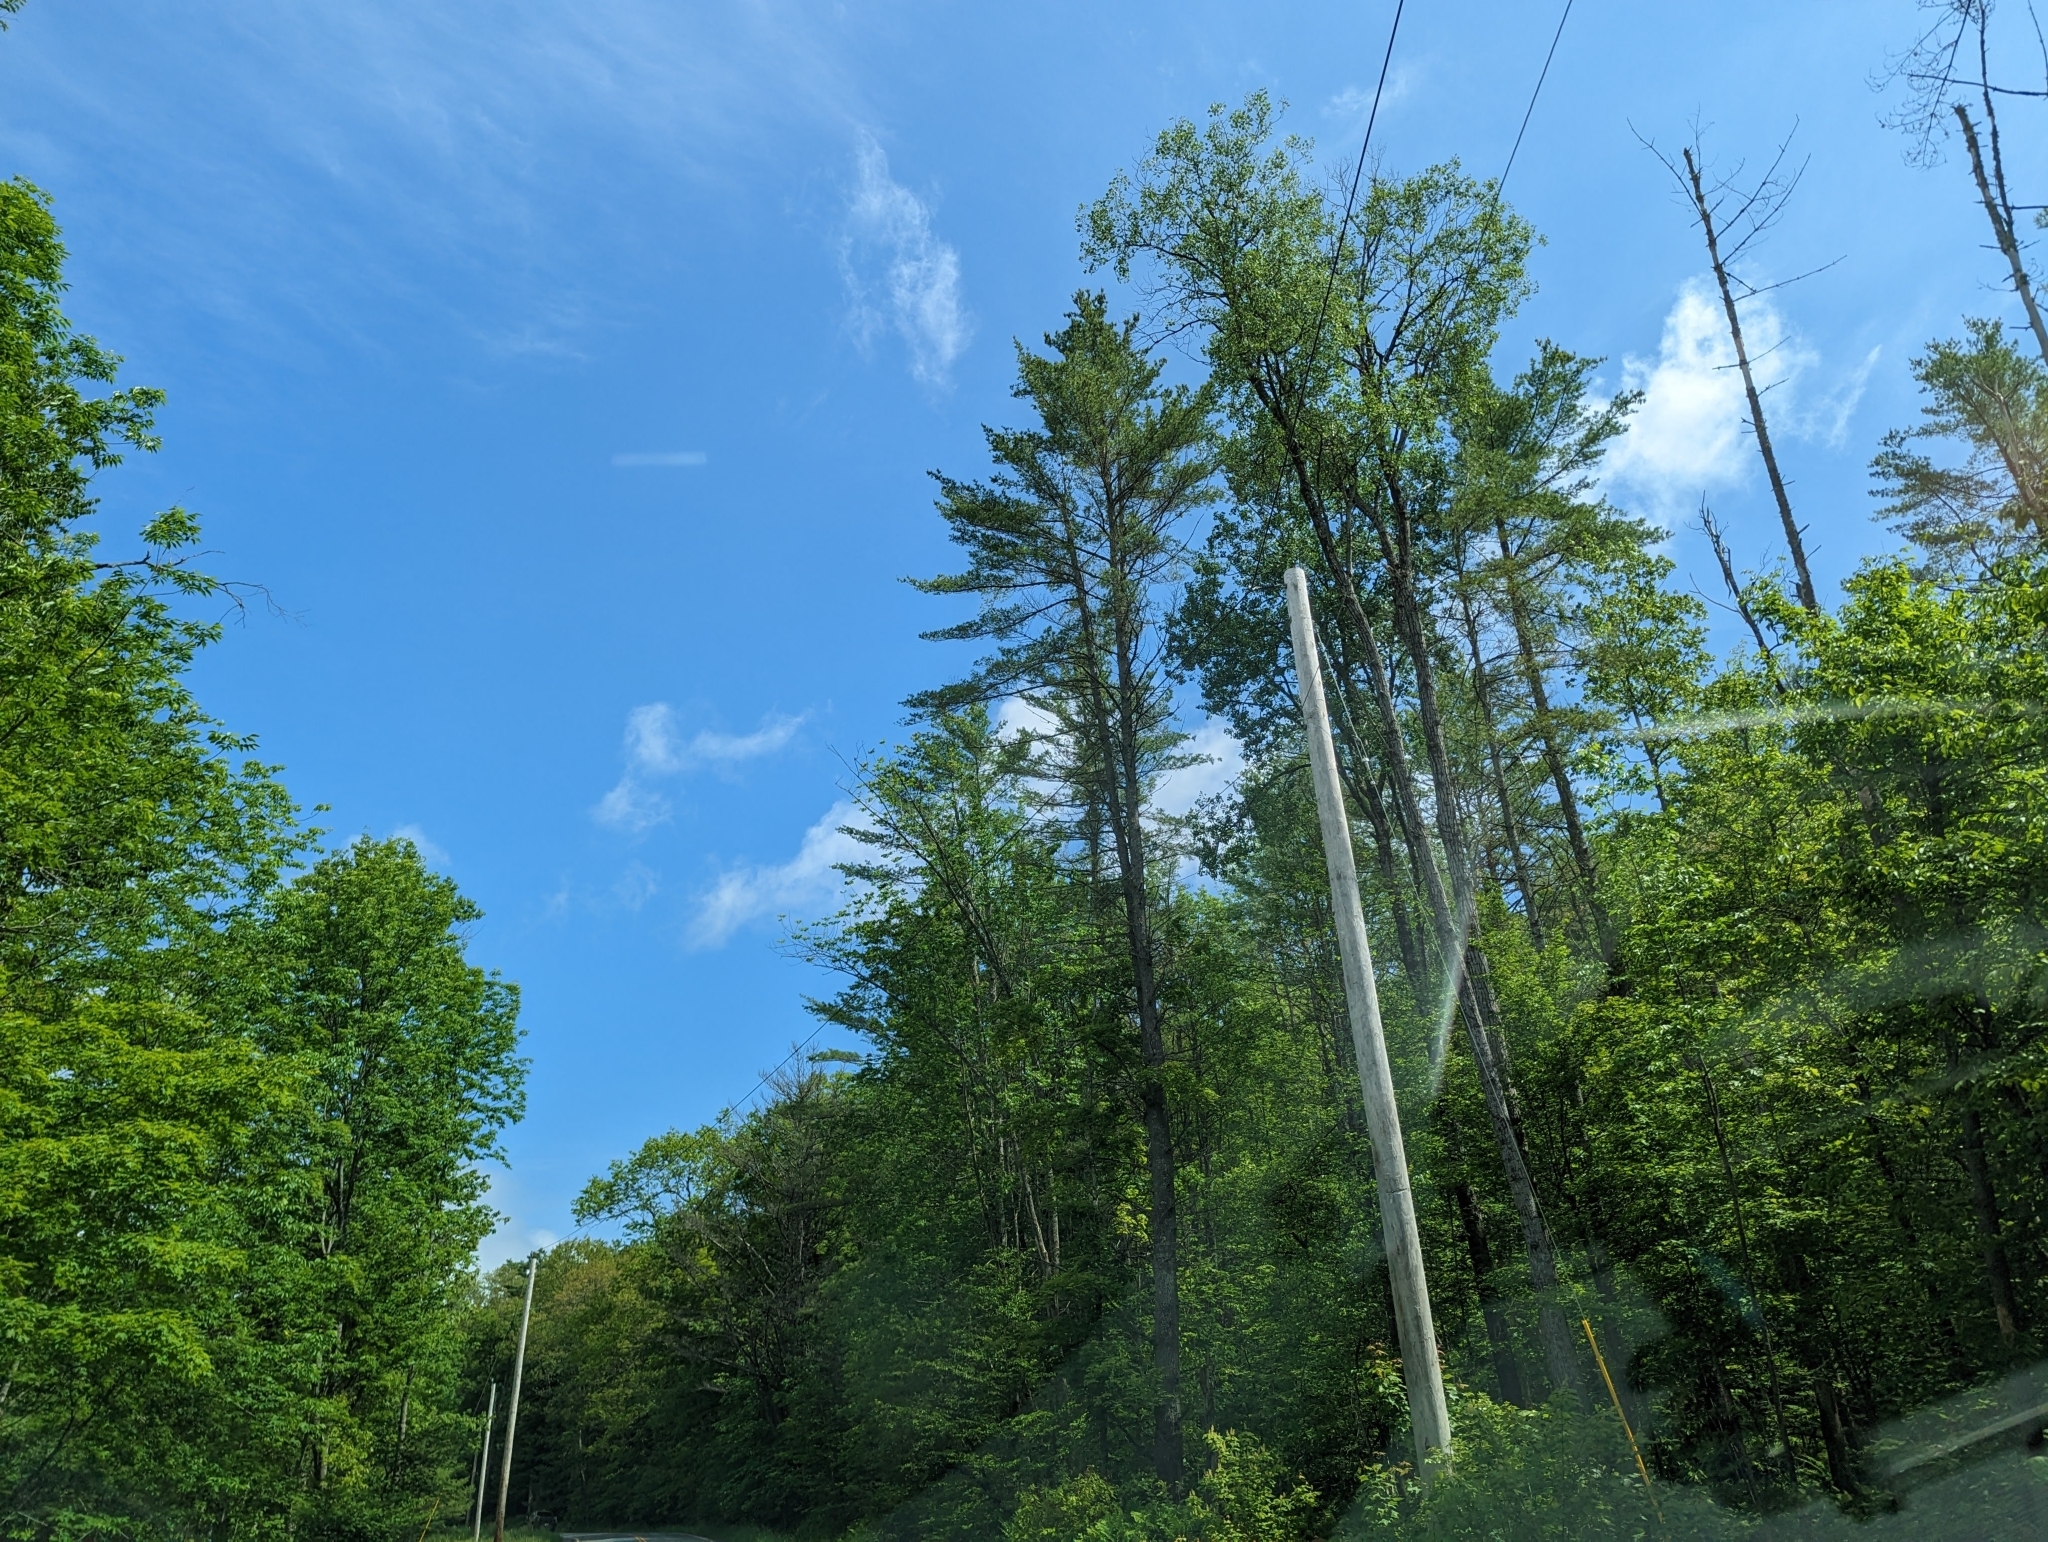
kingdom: Plantae
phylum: Tracheophyta
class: Pinopsida
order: Pinales
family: Pinaceae
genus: Pinus
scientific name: Pinus strobus
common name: Weymouth pine
